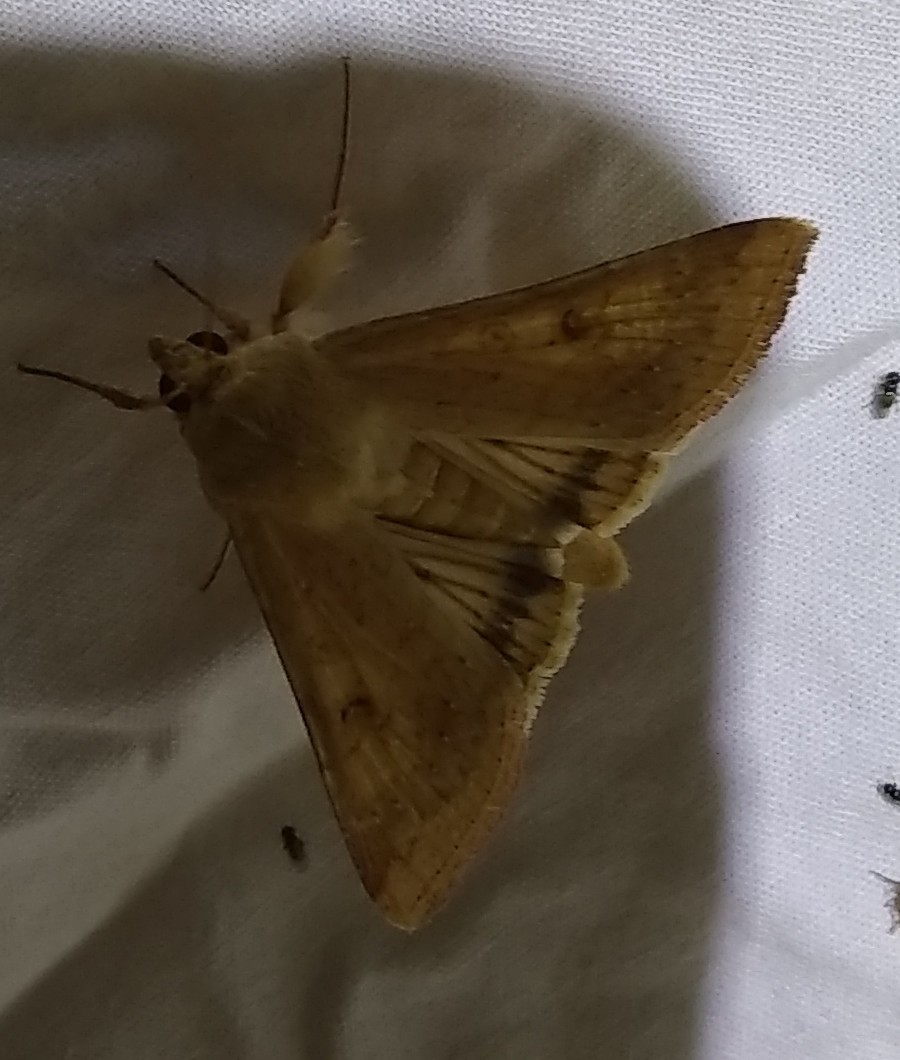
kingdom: Animalia
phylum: Arthropoda
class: Insecta
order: Lepidoptera
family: Noctuidae
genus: Helicoverpa
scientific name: Helicoverpa zea
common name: Bollworm
